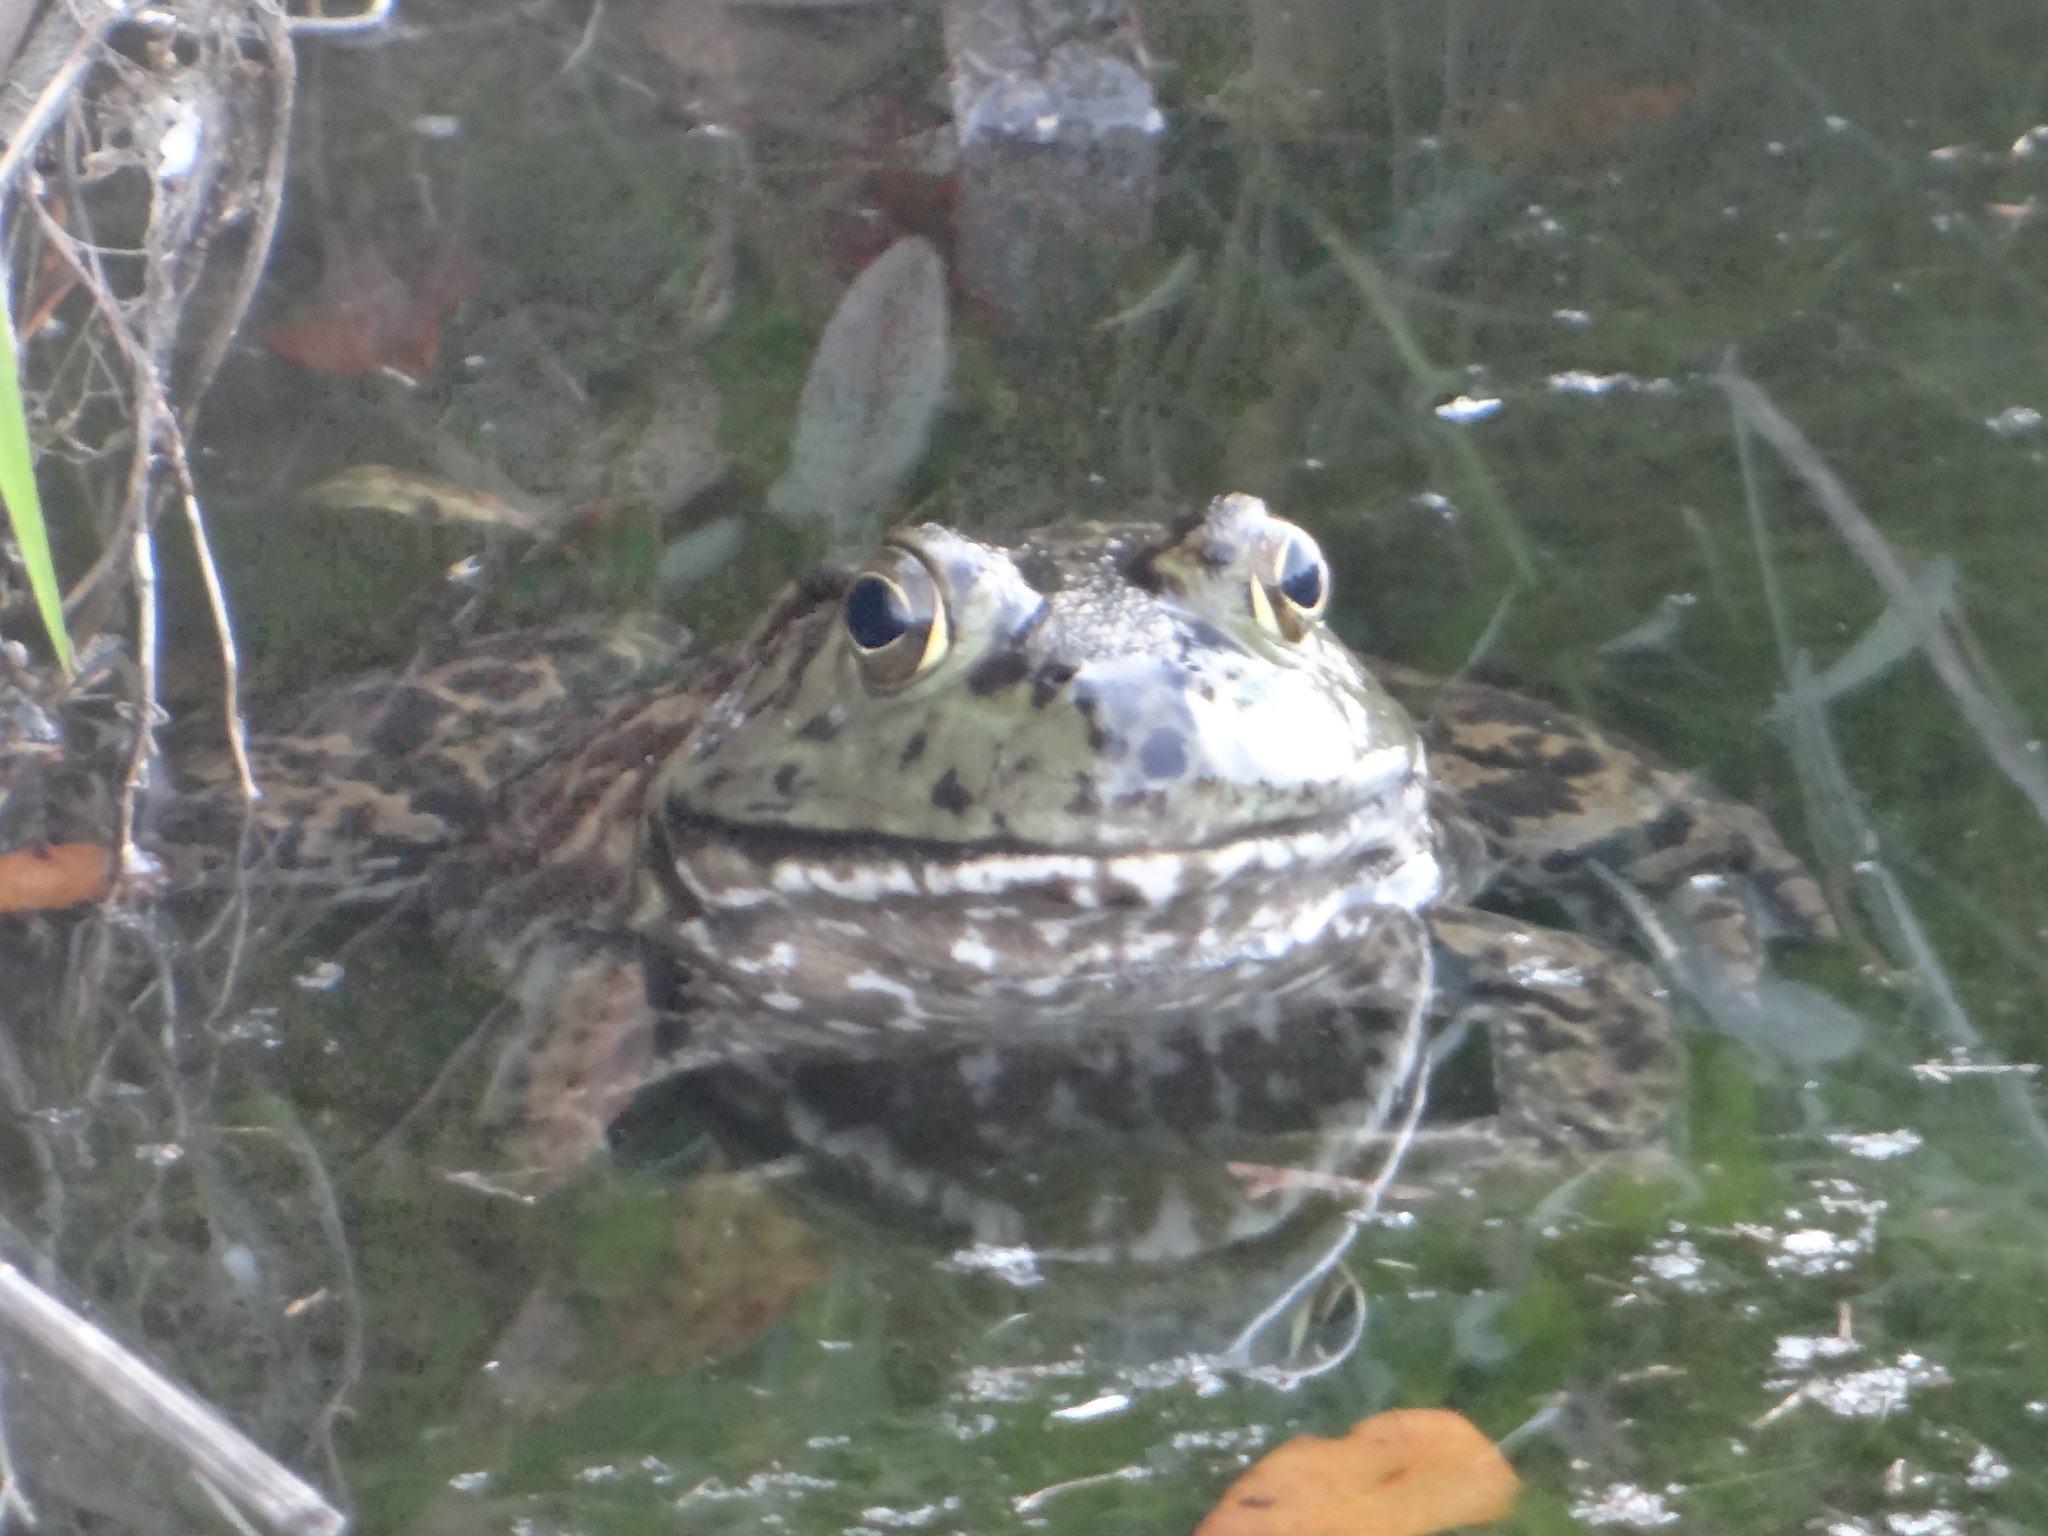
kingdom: Animalia
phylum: Chordata
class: Amphibia
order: Anura
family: Ranidae
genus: Lithobates
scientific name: Lithobates catesbeianus
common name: American bullfrog
